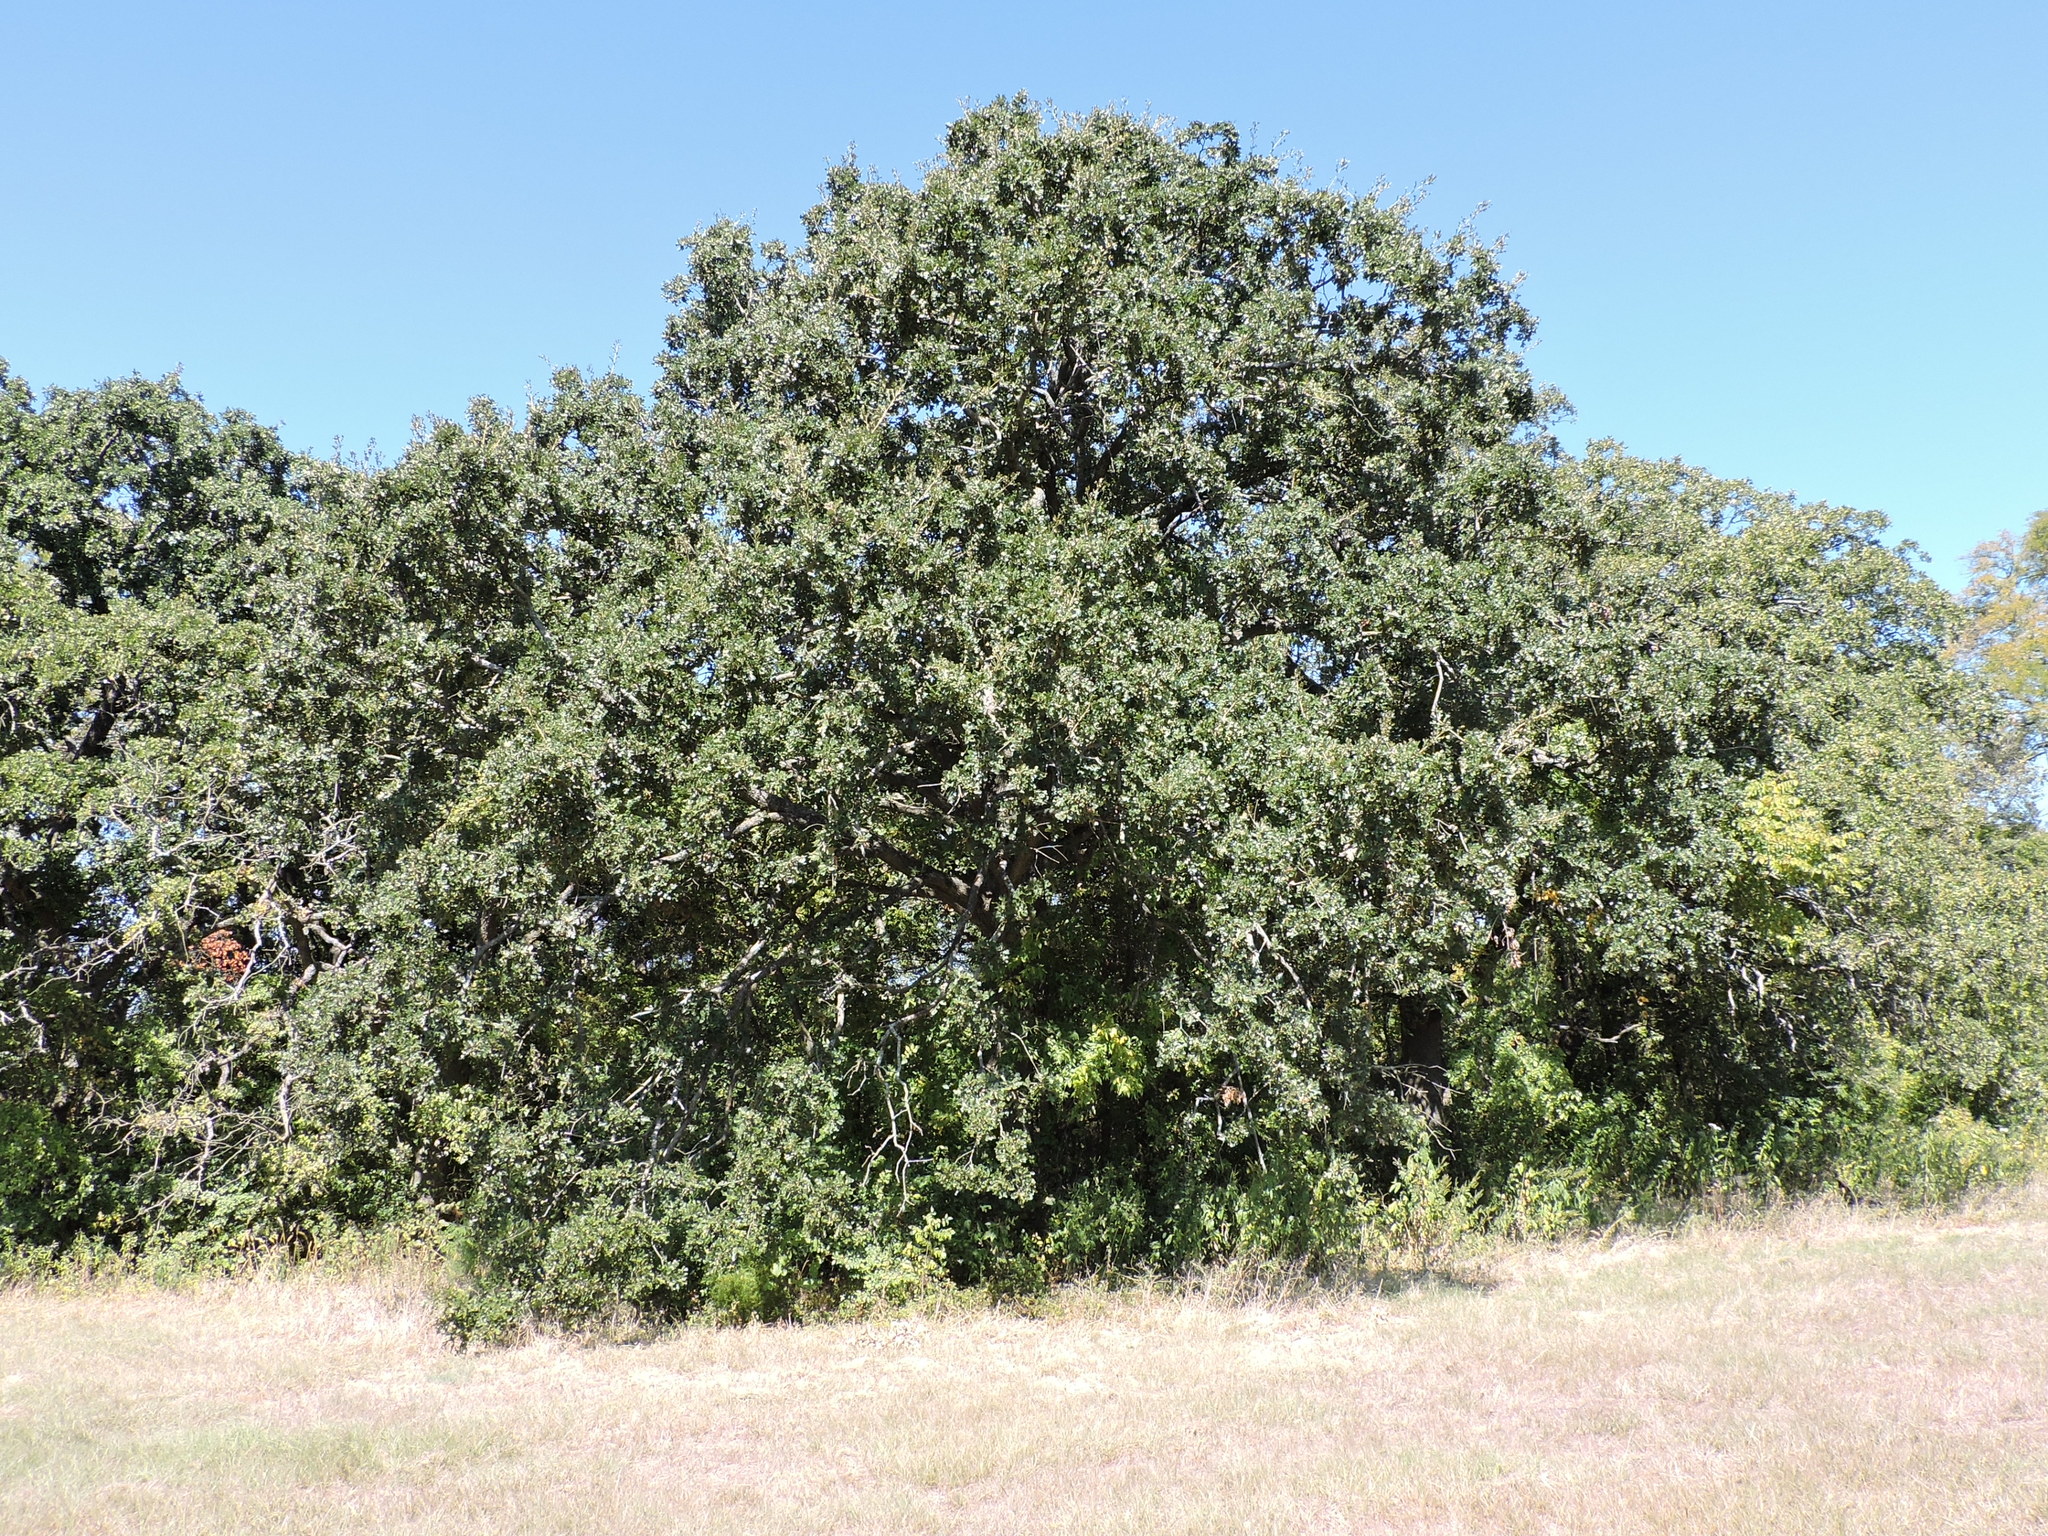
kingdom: Plantae
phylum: Tracheophyta
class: Magnoliopsida
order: Fagales
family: Fagaceae
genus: Quercus
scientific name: Quercus stellata
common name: Post oak
